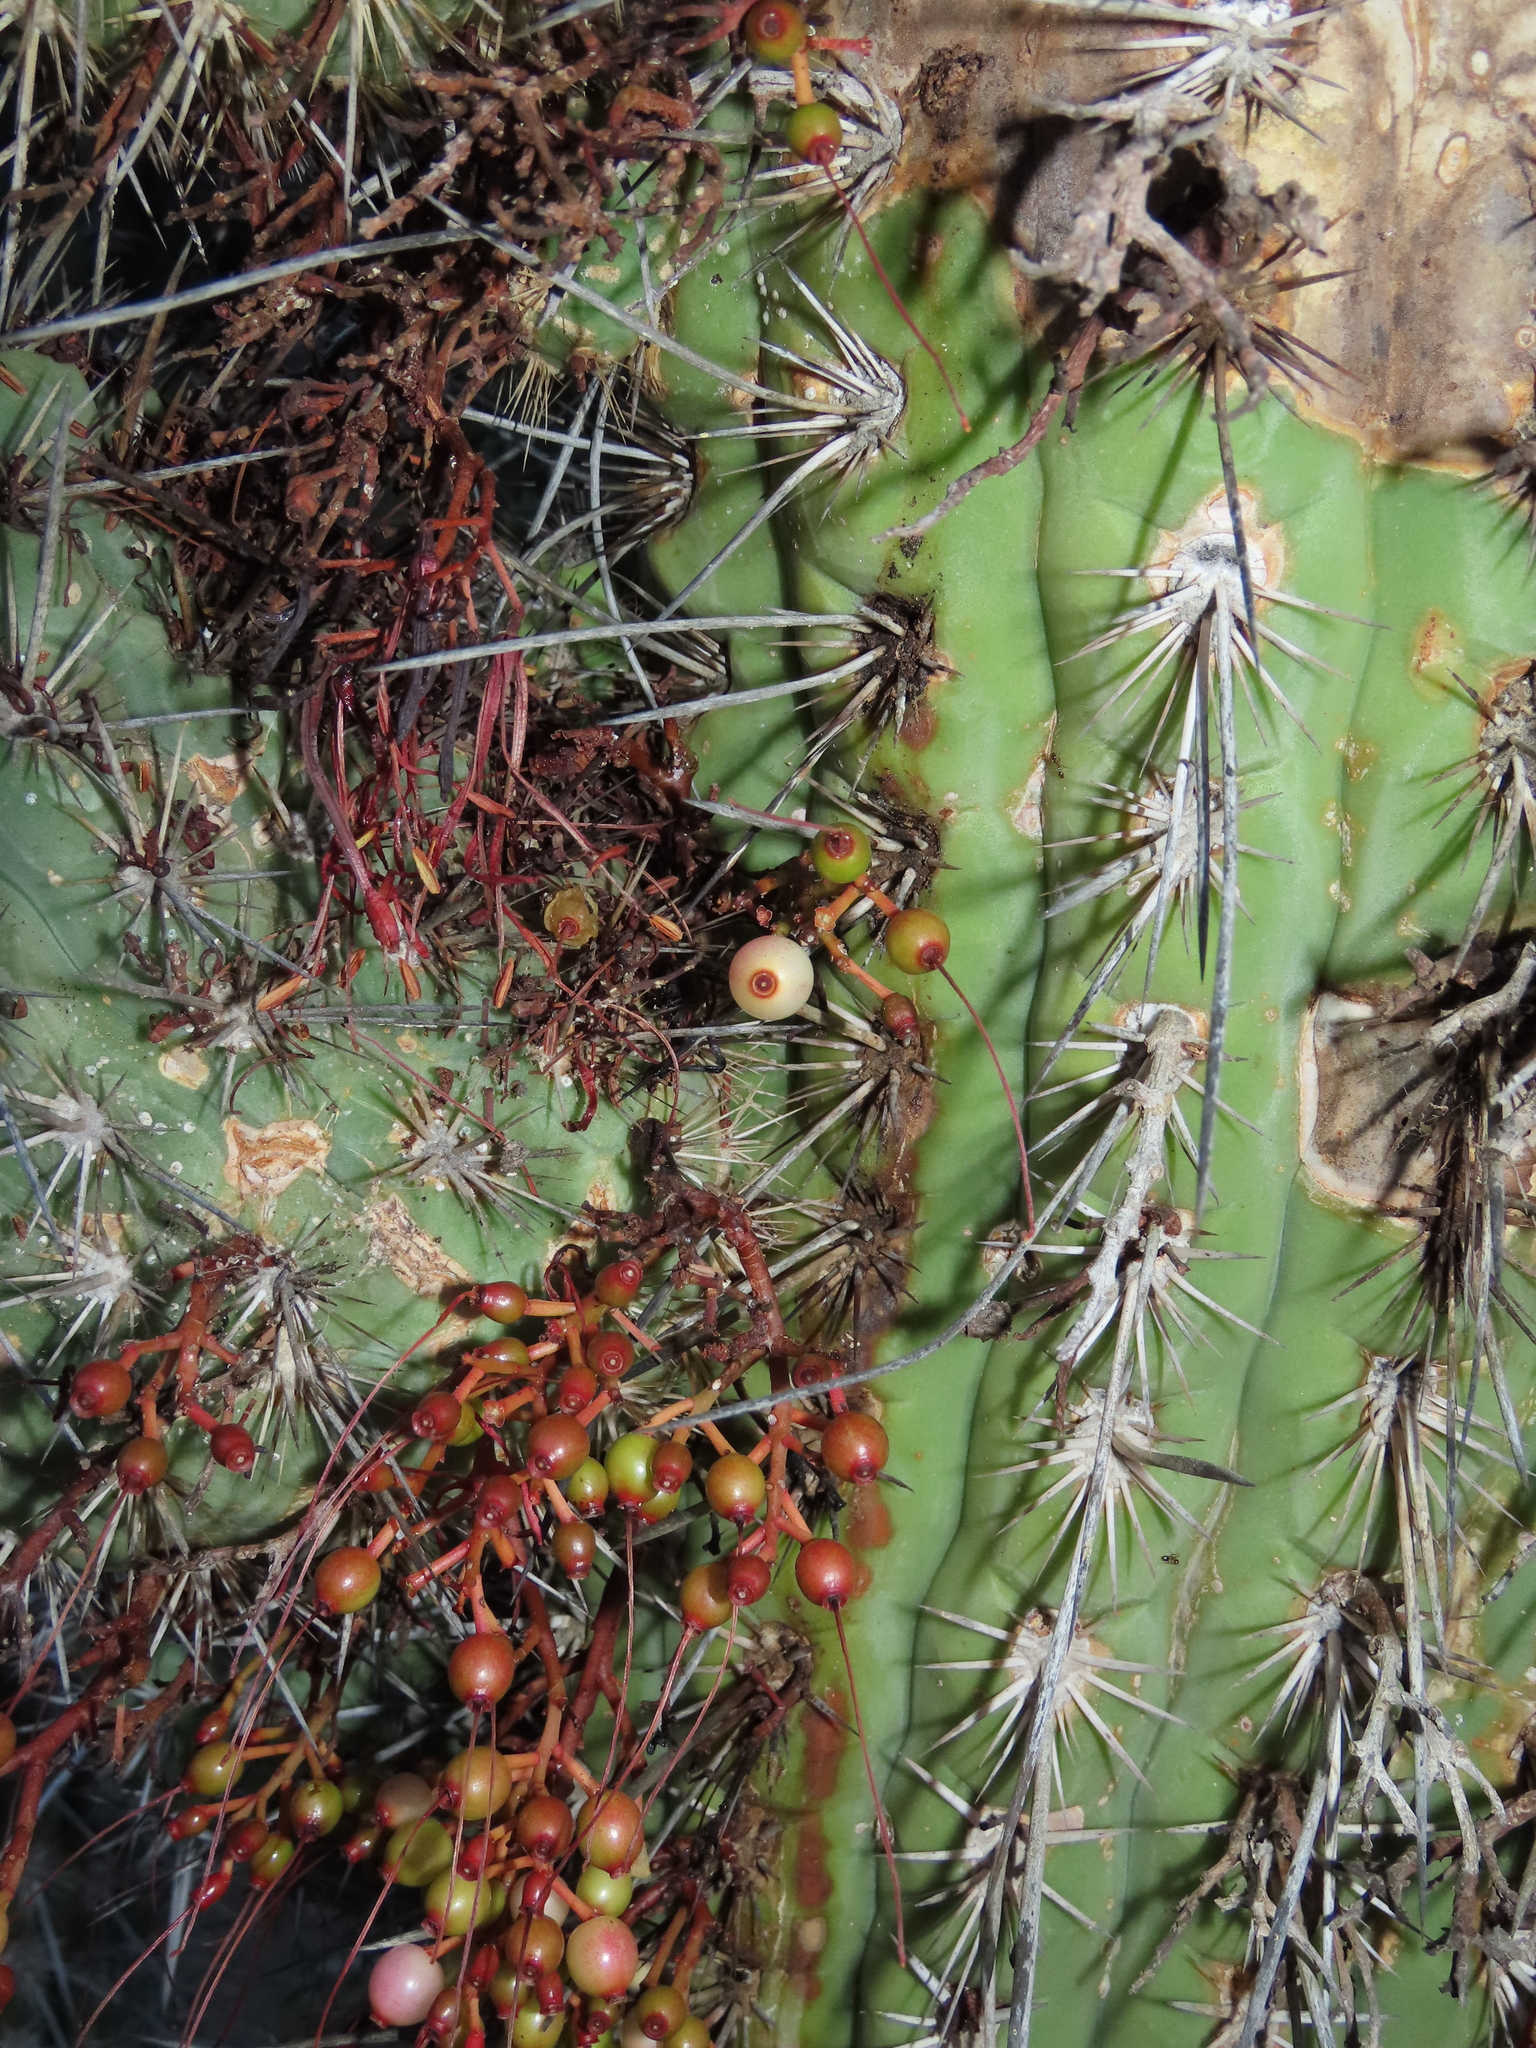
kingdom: Plantae
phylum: Tracheophyta
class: Magnoliopsida
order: Santalales
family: Loranthaceae
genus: Tristerix
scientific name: Tristerix aphyllus
